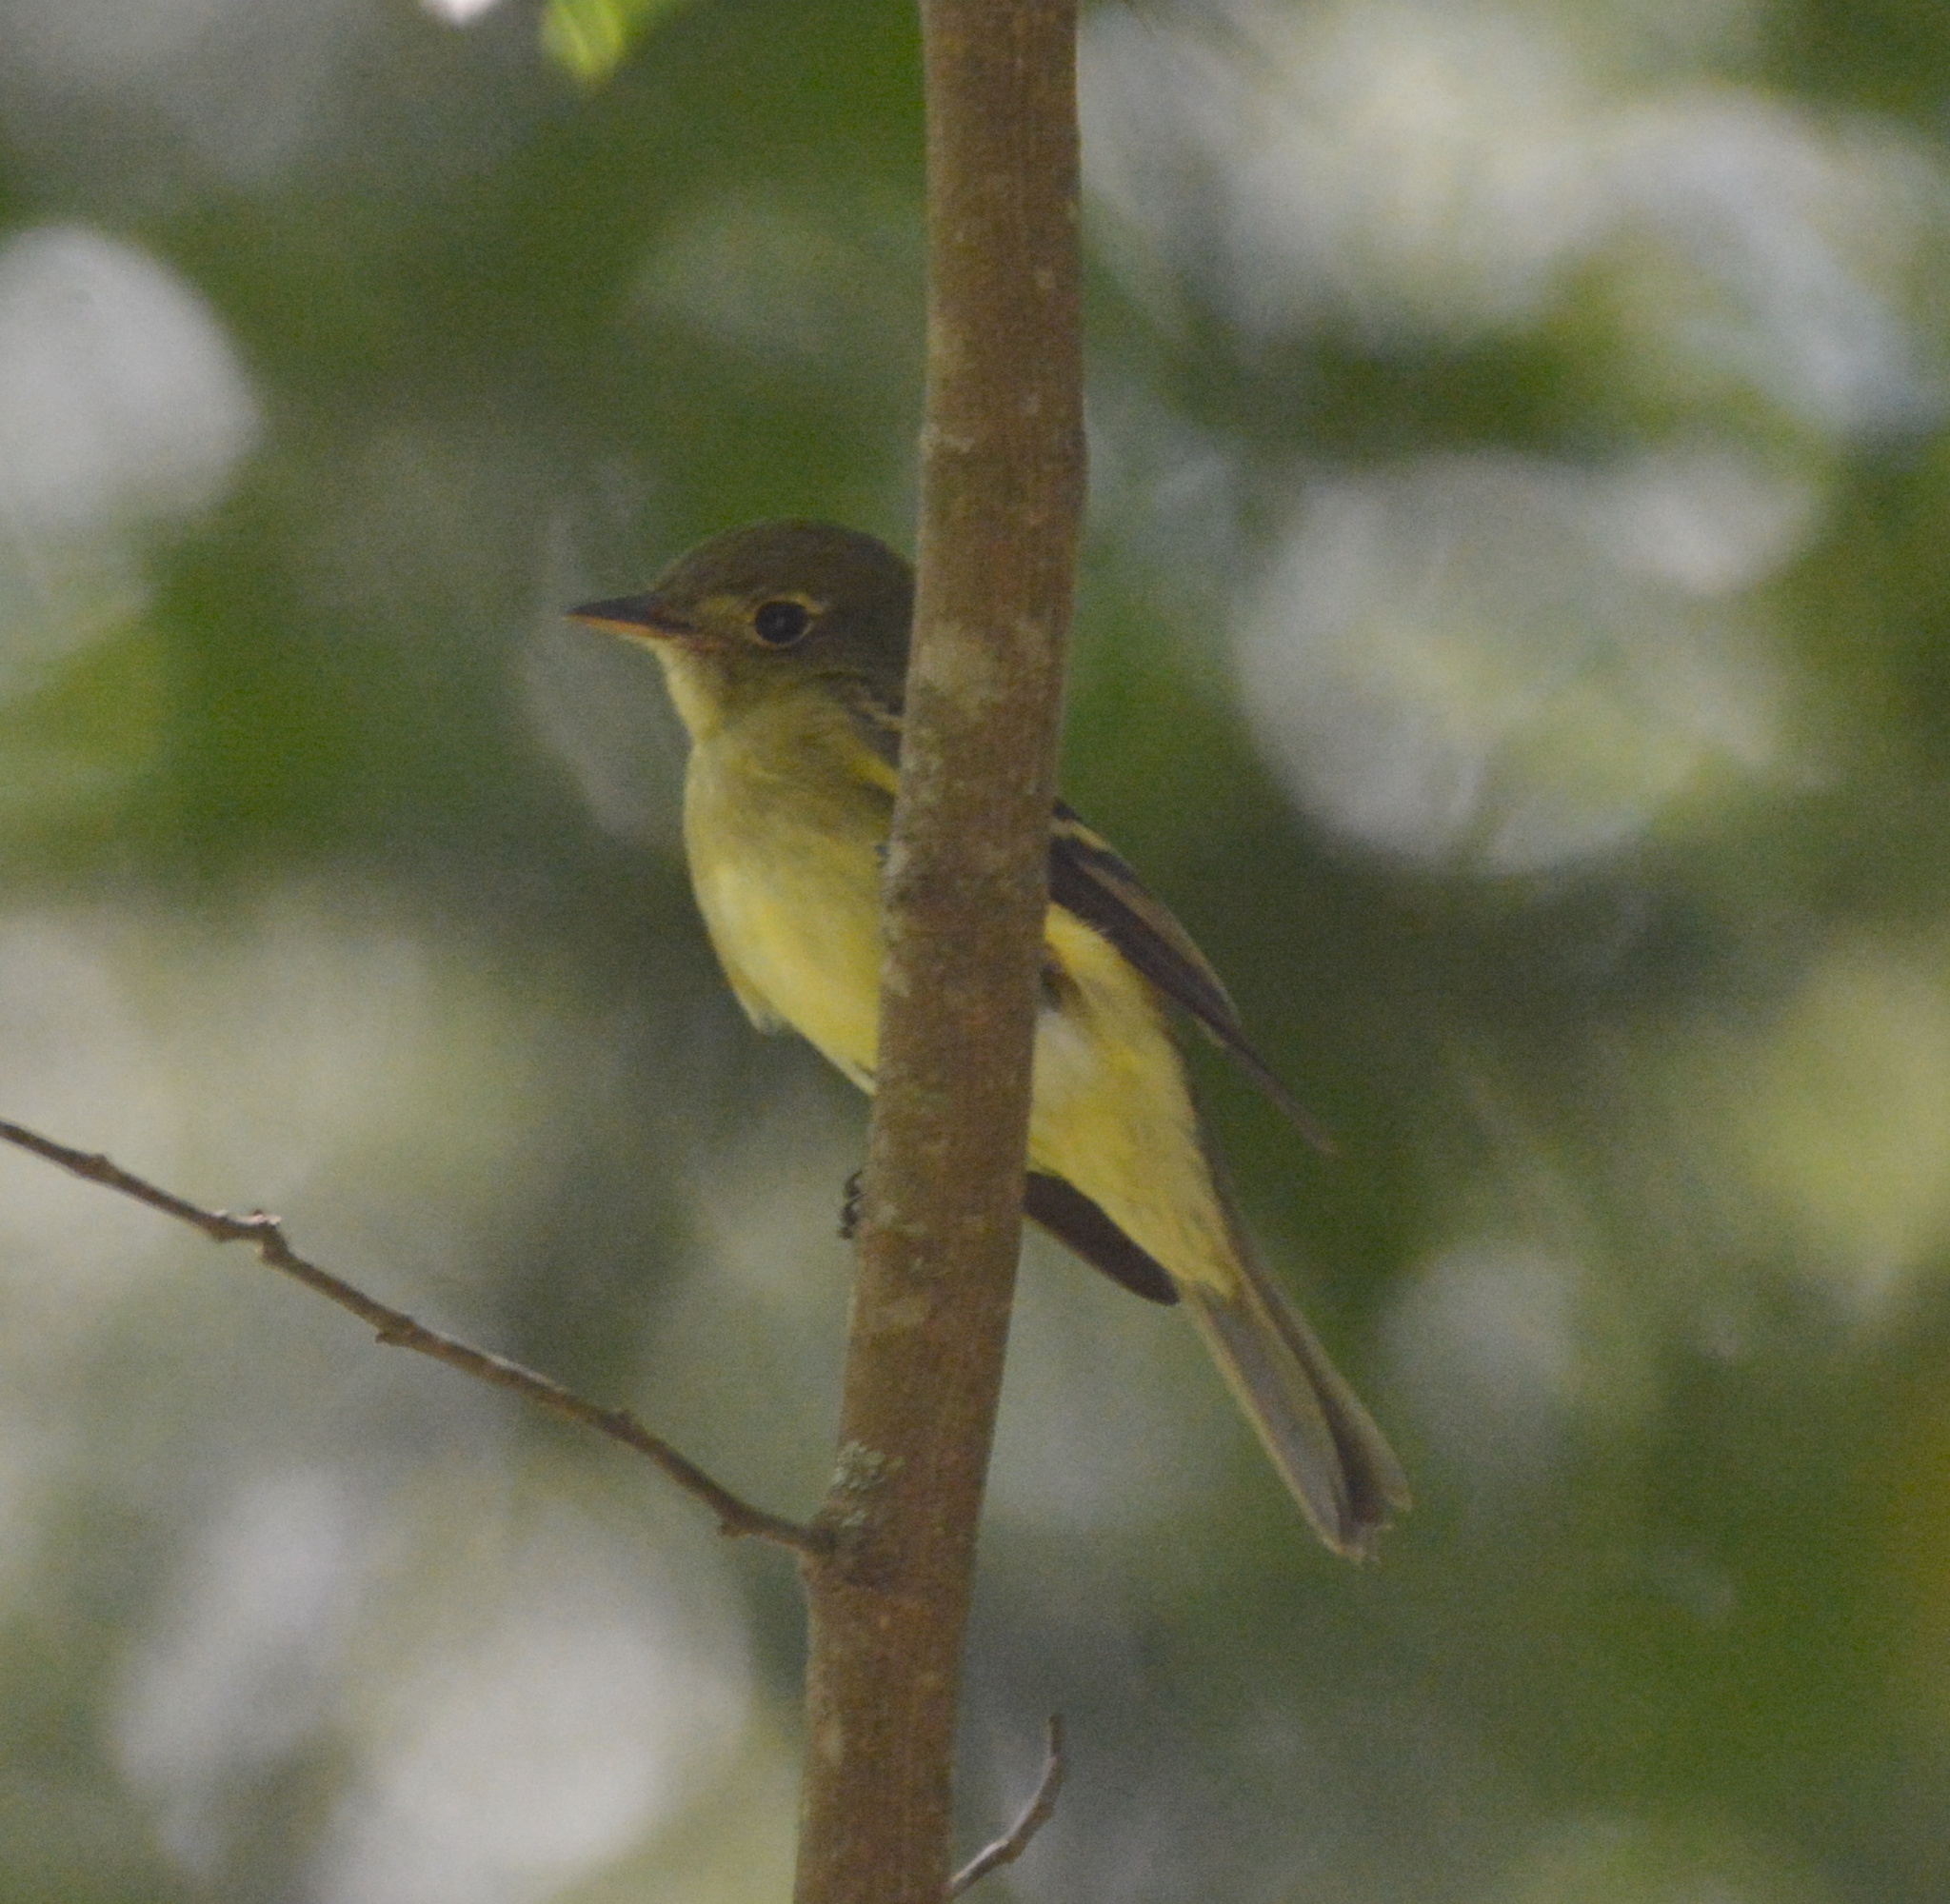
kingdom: Animalia
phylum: Chordata
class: Aves
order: Passeriformes
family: Tyrannidae
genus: Empidonax
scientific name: Empidonax flaviventris
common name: Yellow-bellied flycatcher
